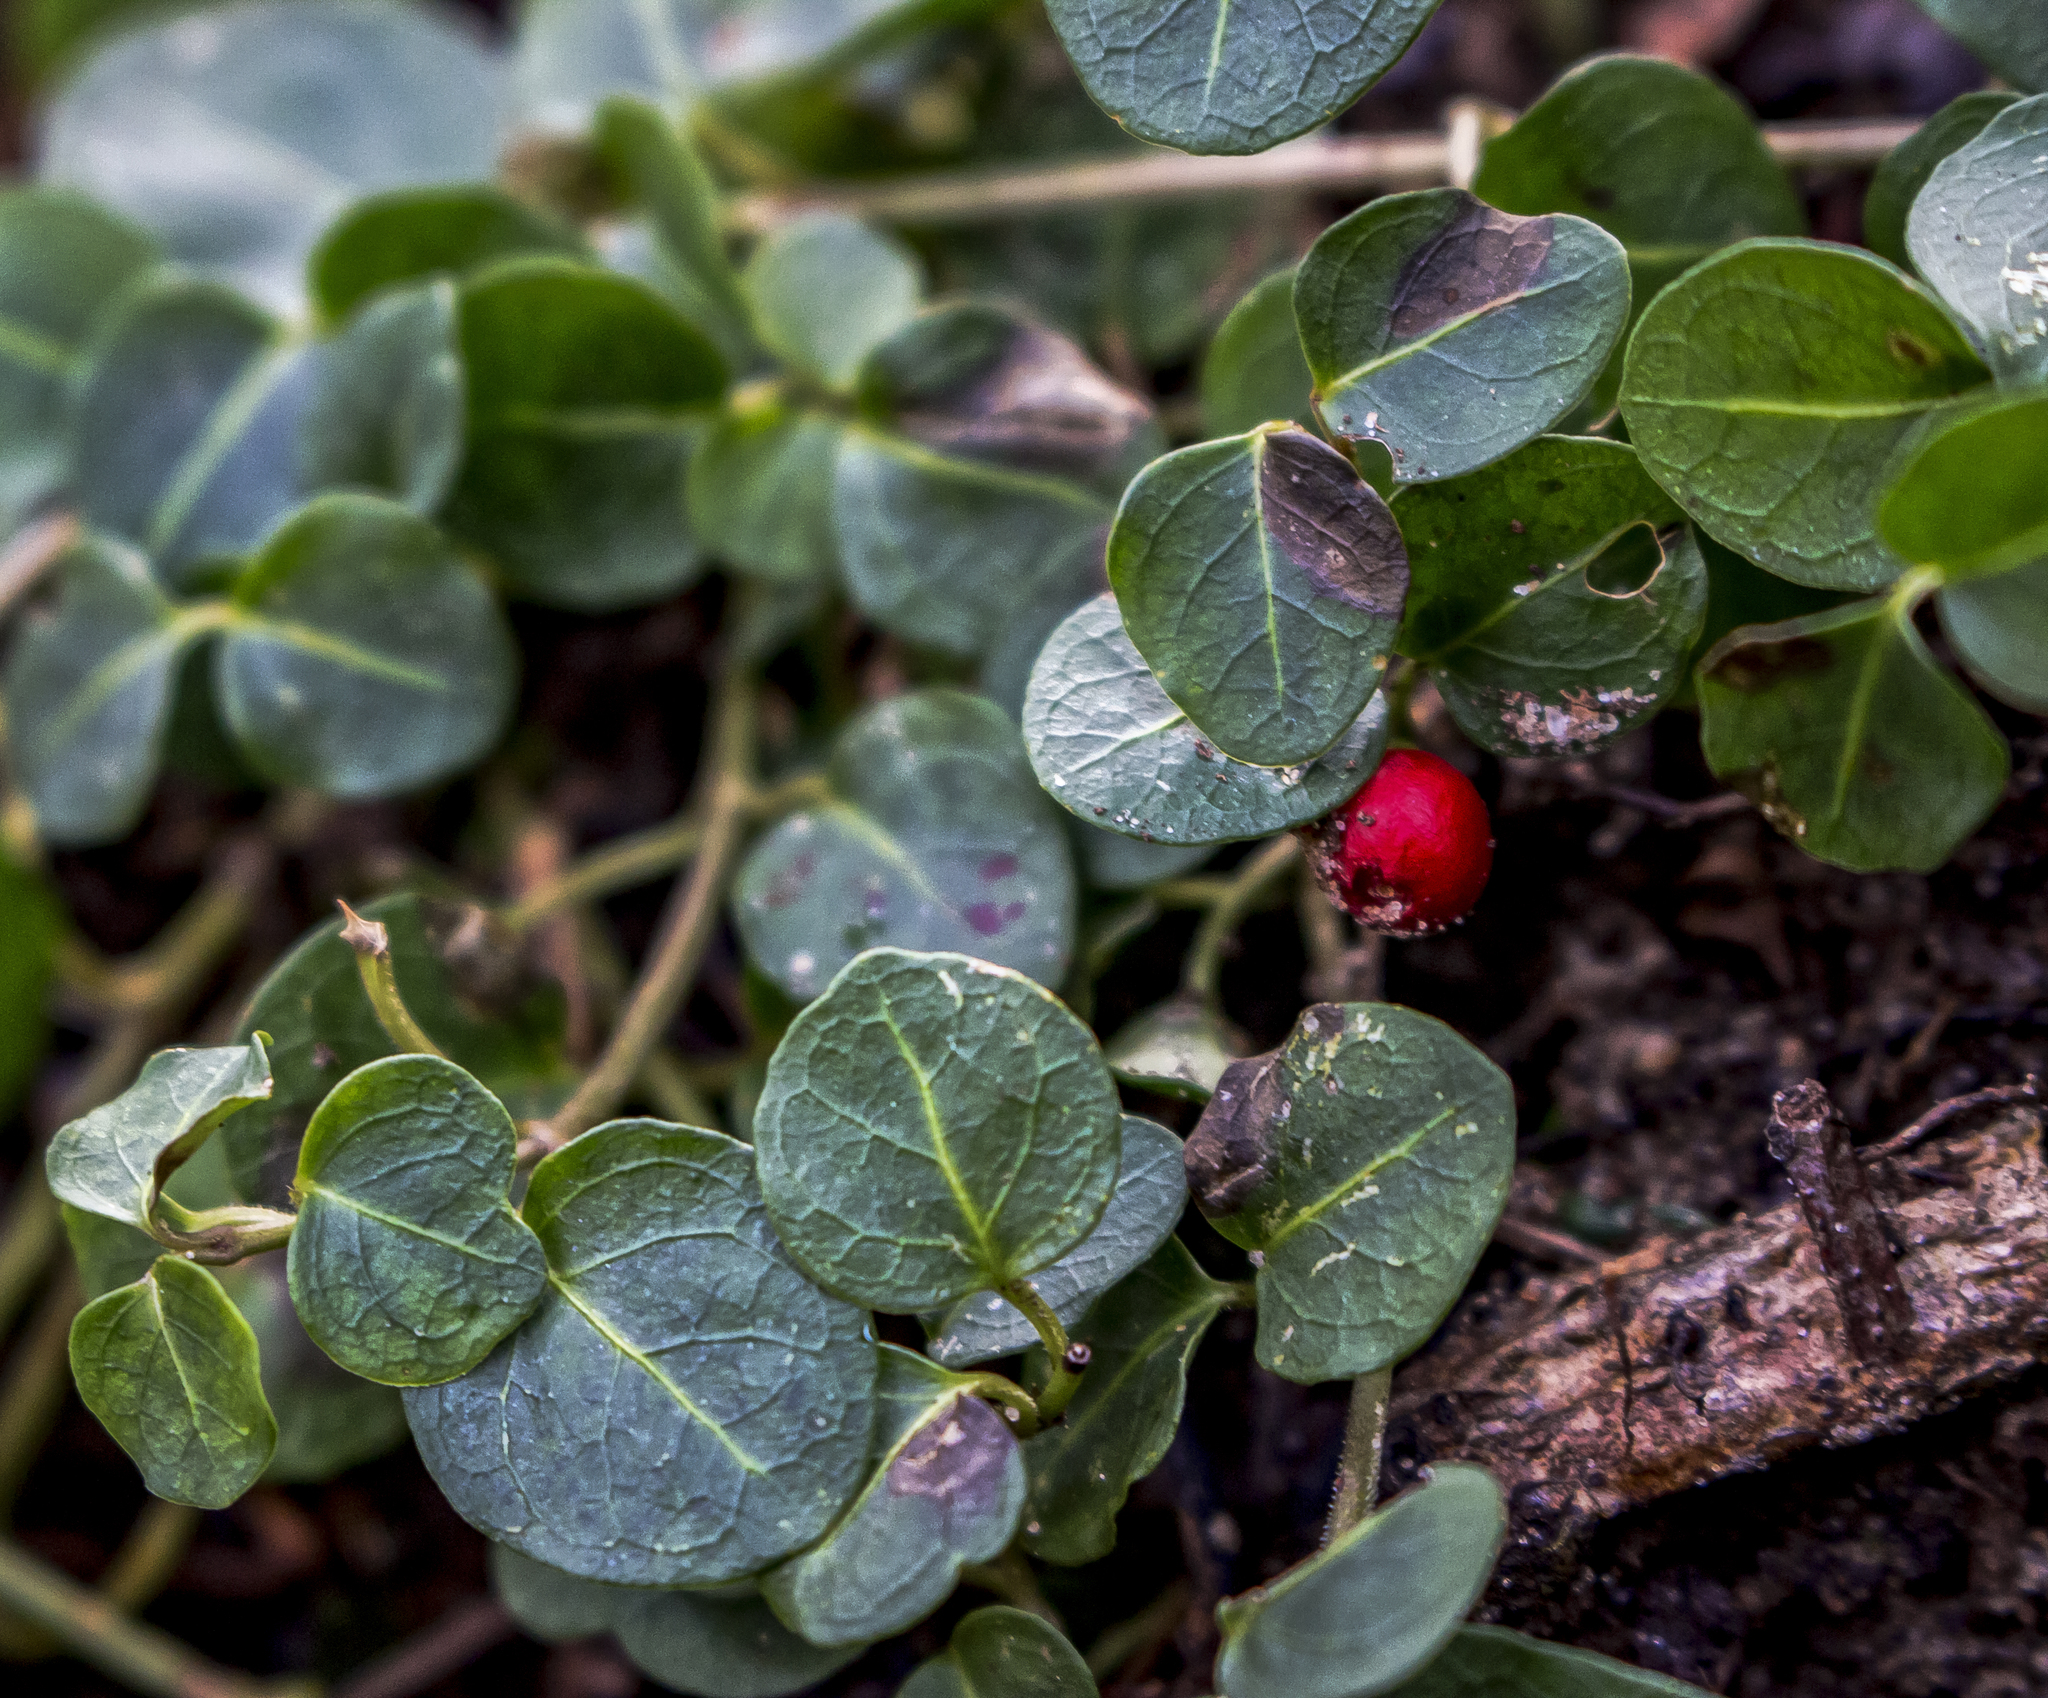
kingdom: Plantae
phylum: Tracheophyta
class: Magnoliopsida
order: Gentianales
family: Rubiaceae
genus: Mitchella
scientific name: Mitchella repens
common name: Partridge-berry
